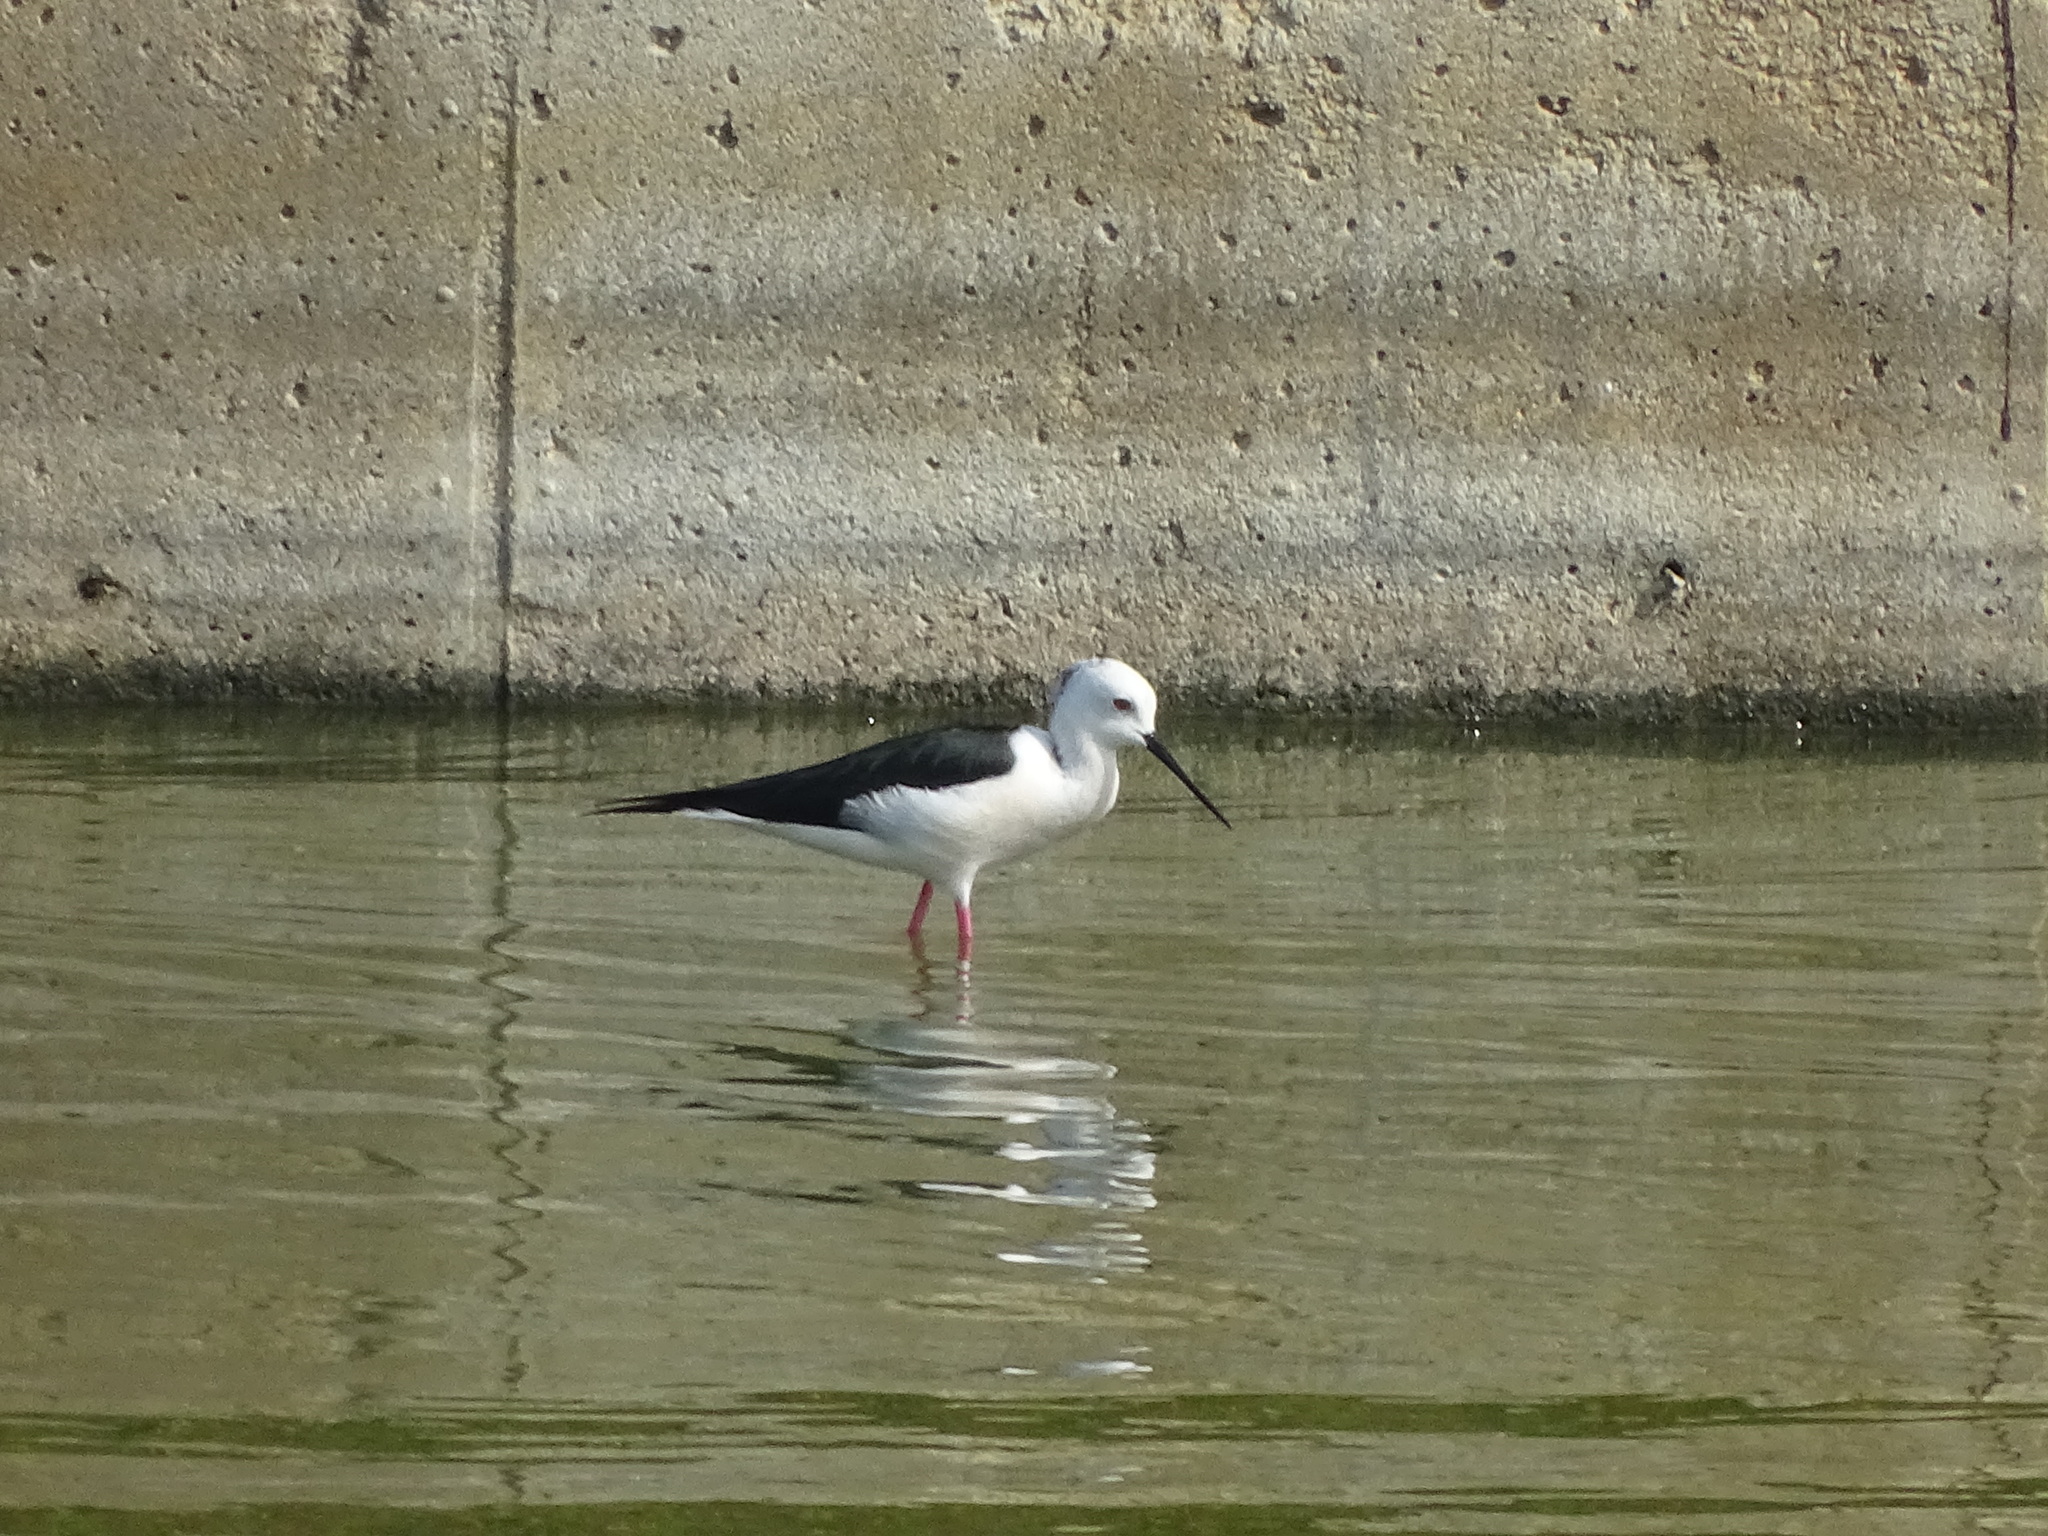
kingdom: Animalia
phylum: Chordata
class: Aves
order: Charadriiformes
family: Recurvirostridae
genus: Himantopus
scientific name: Himantopus himantopus
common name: Black-winged stilt
